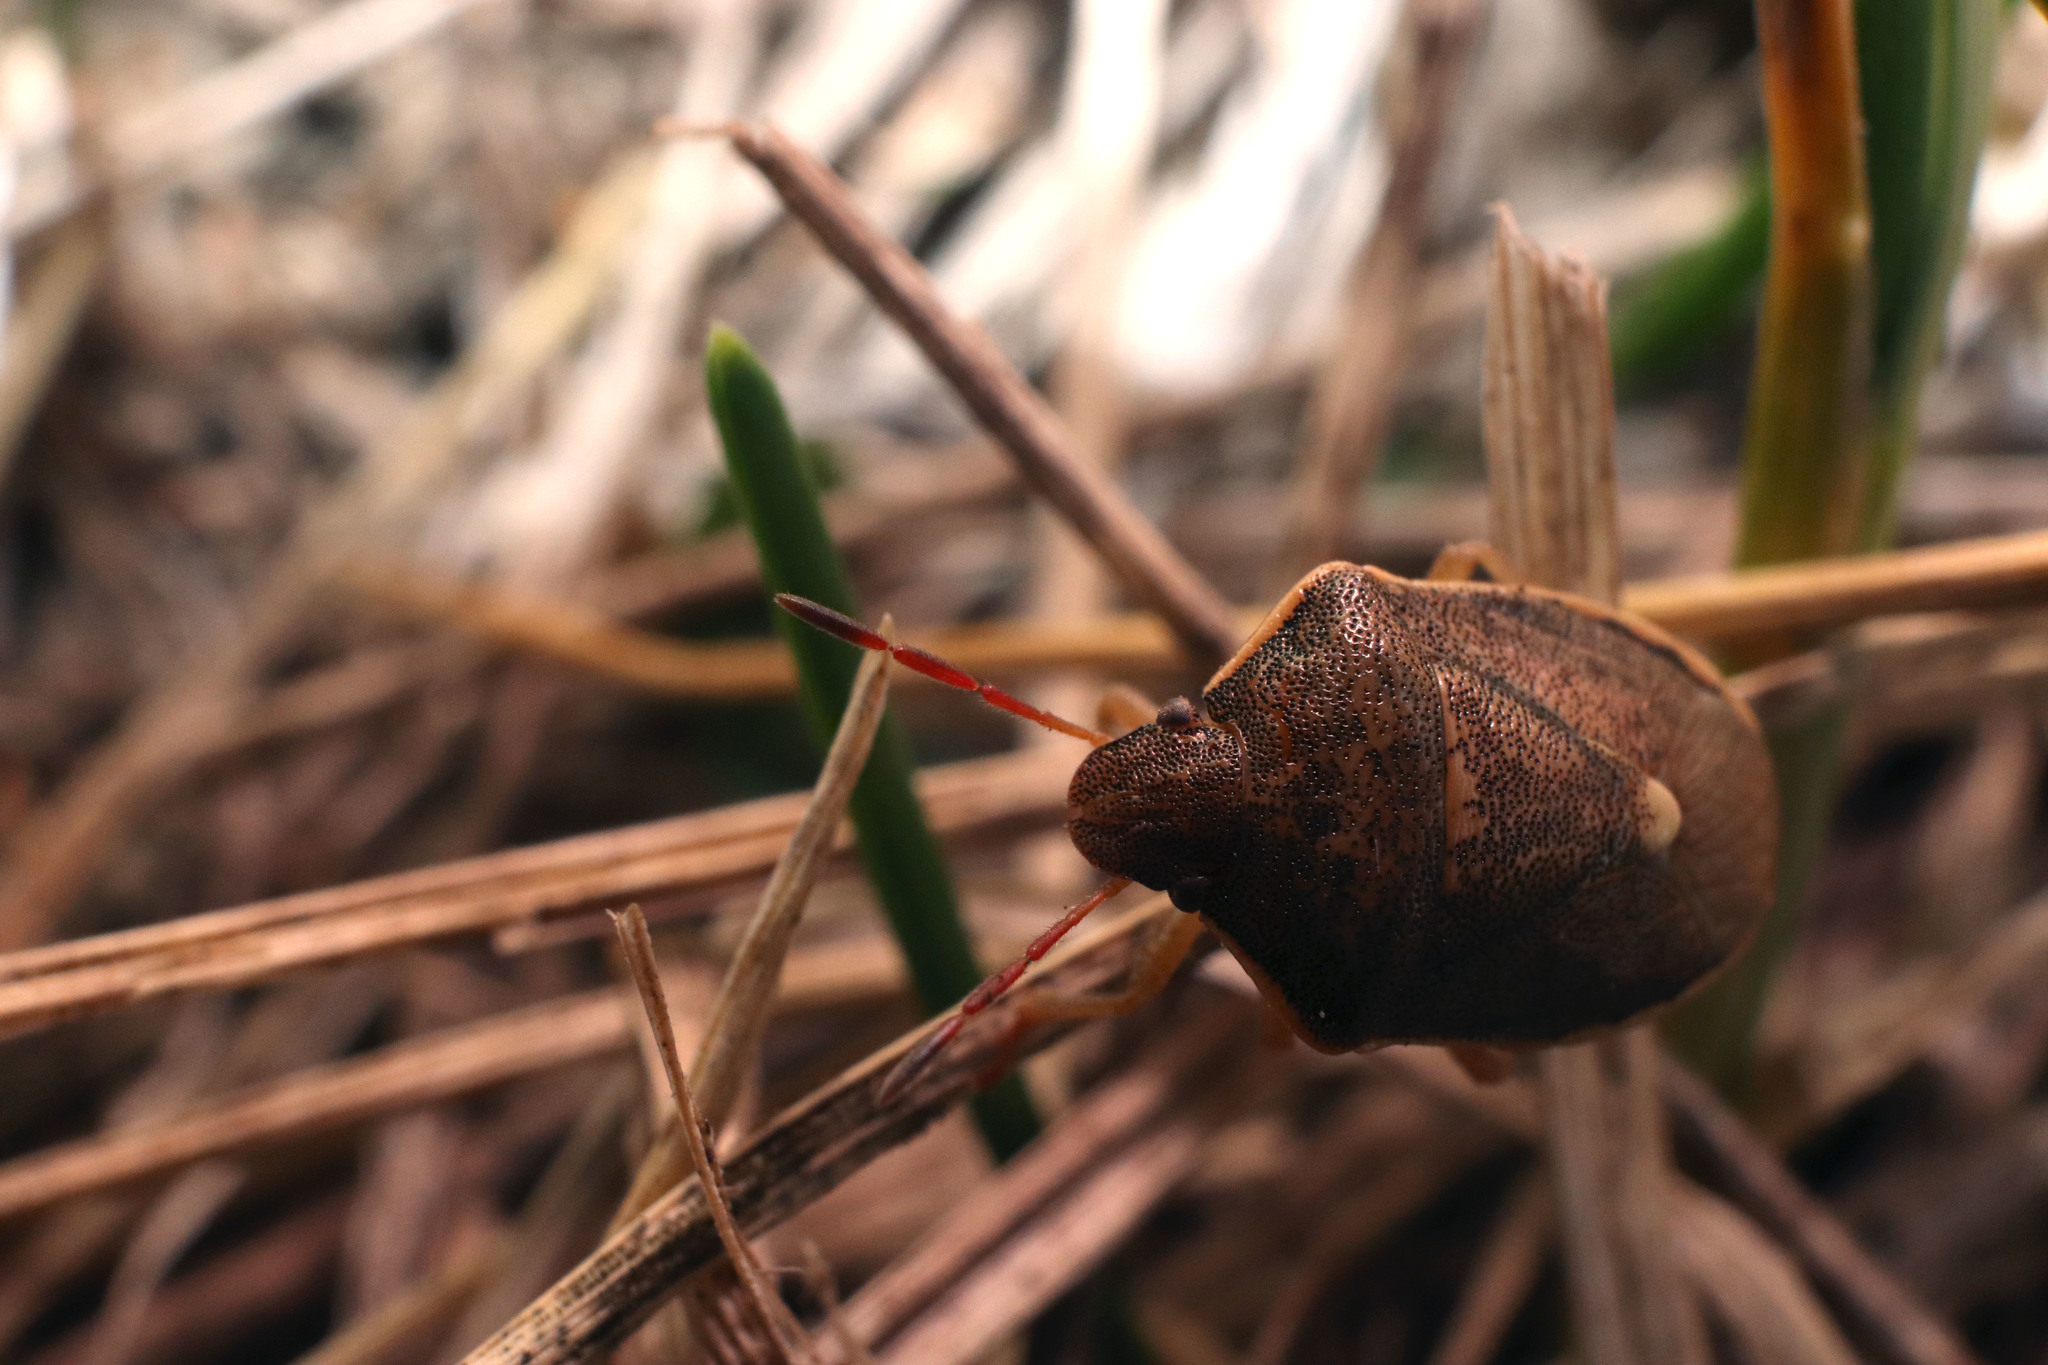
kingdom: Animalia
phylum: Arthropoda
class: Insecta
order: Hemiptera
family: Pentatomidae
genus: Holcostethus
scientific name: Holcostethus limbolarius
